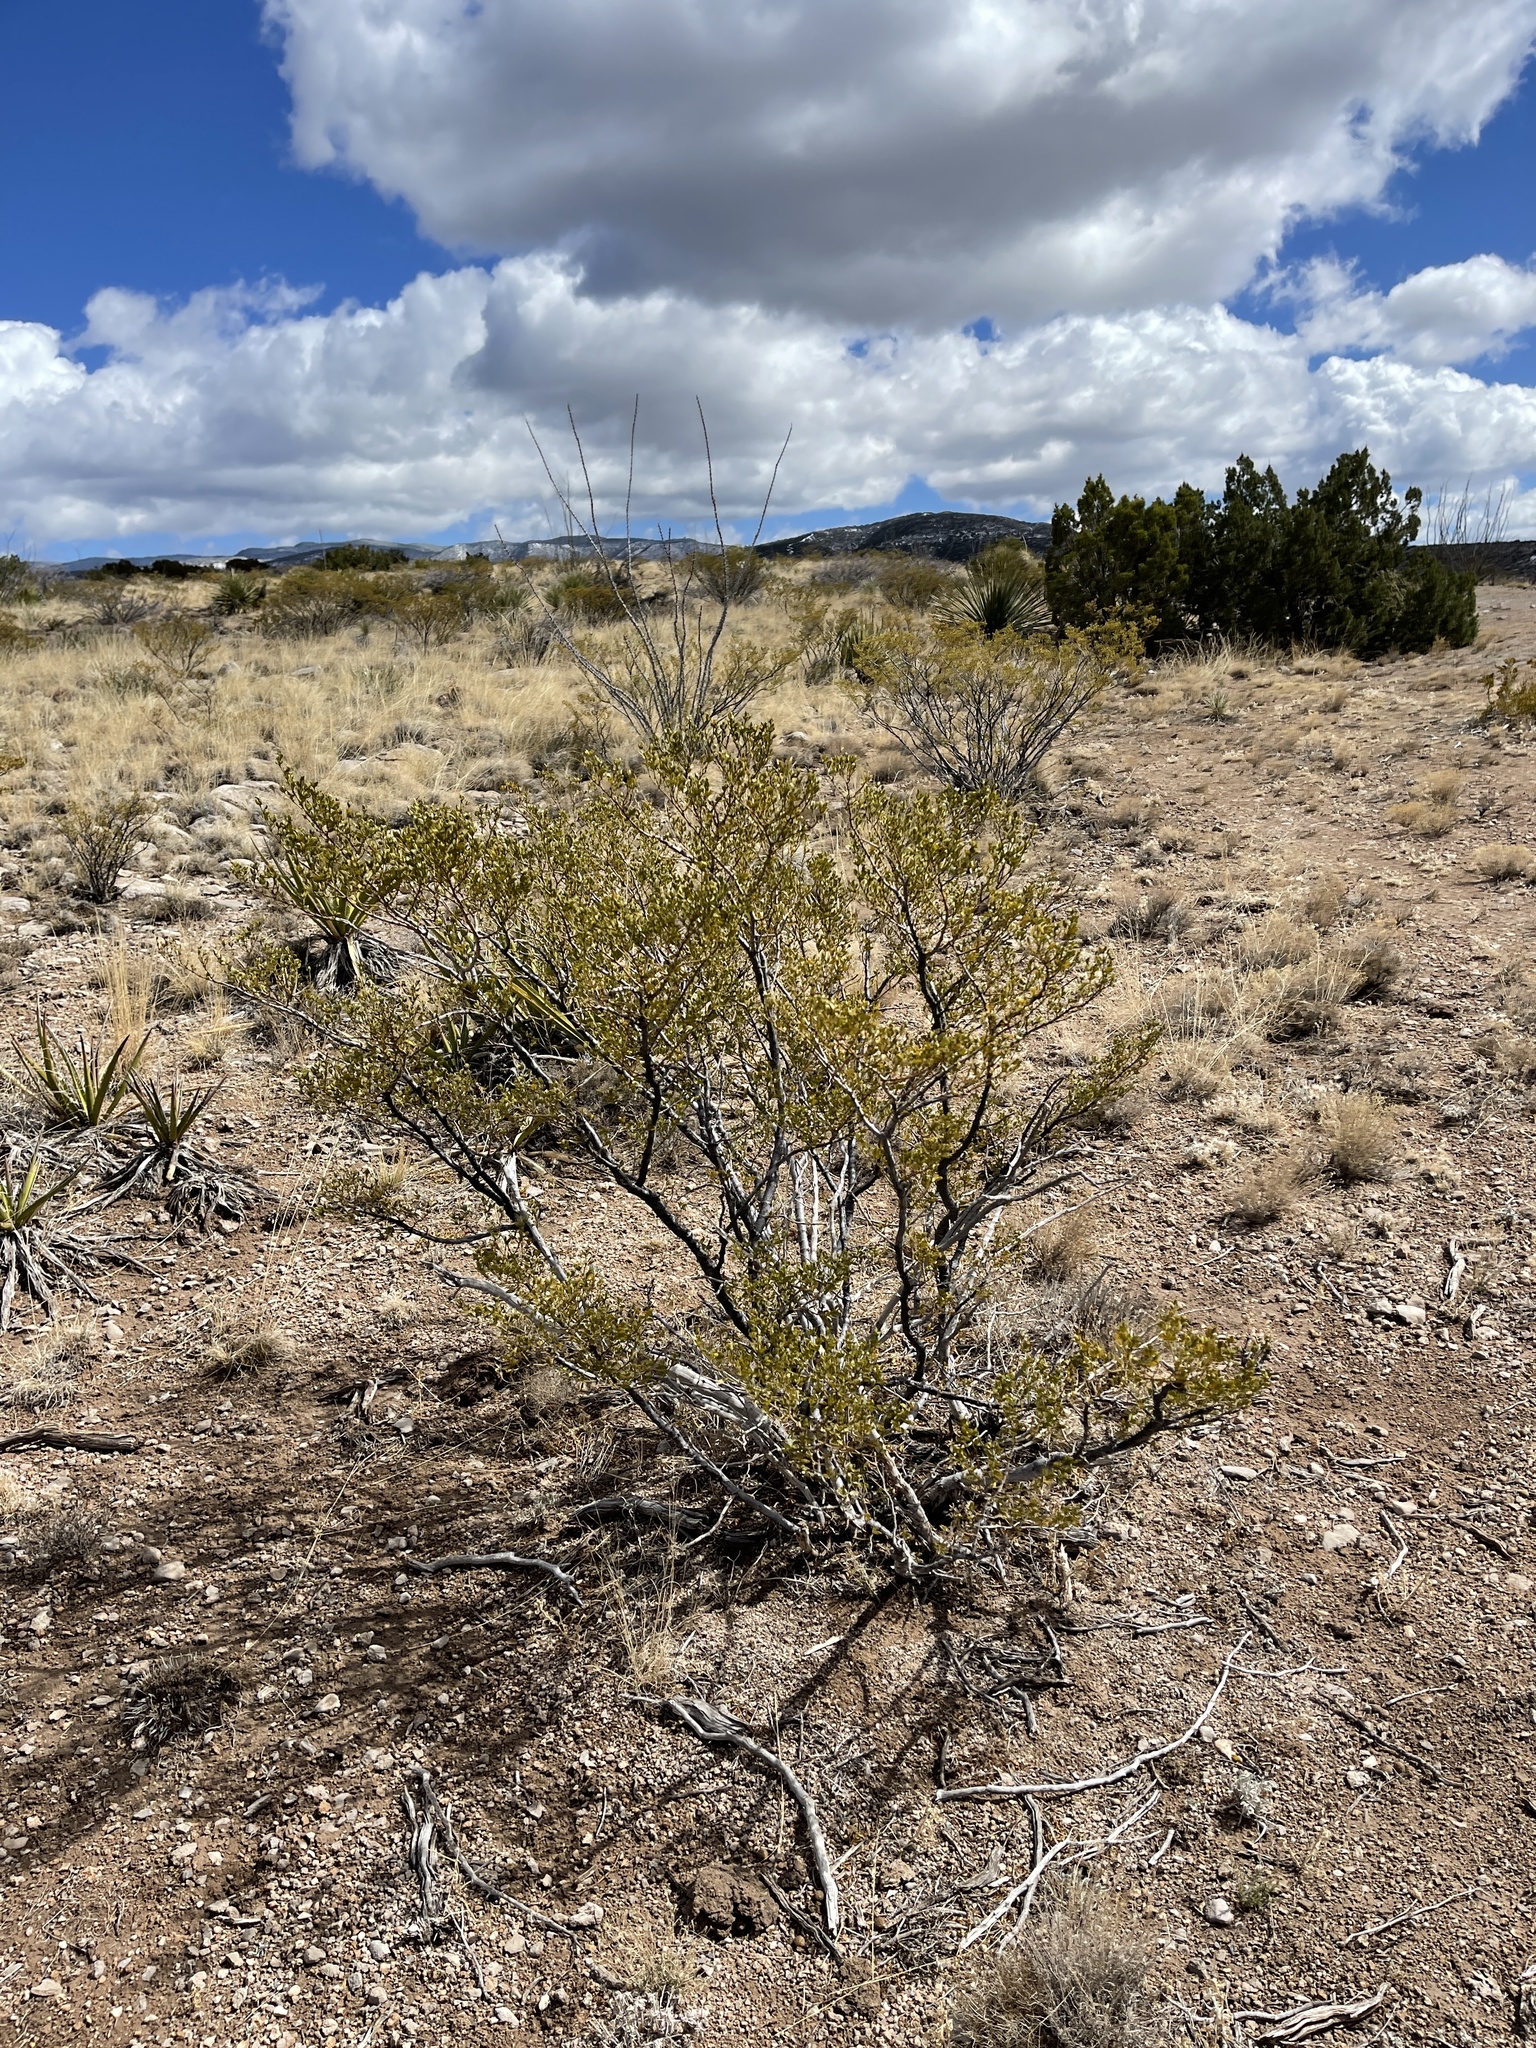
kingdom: Plantae
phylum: Tracheophyta
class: Magnoliopsida
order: Zygophyllales
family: Zygophyllaceae
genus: Larrea
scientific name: Larrea tridentata
